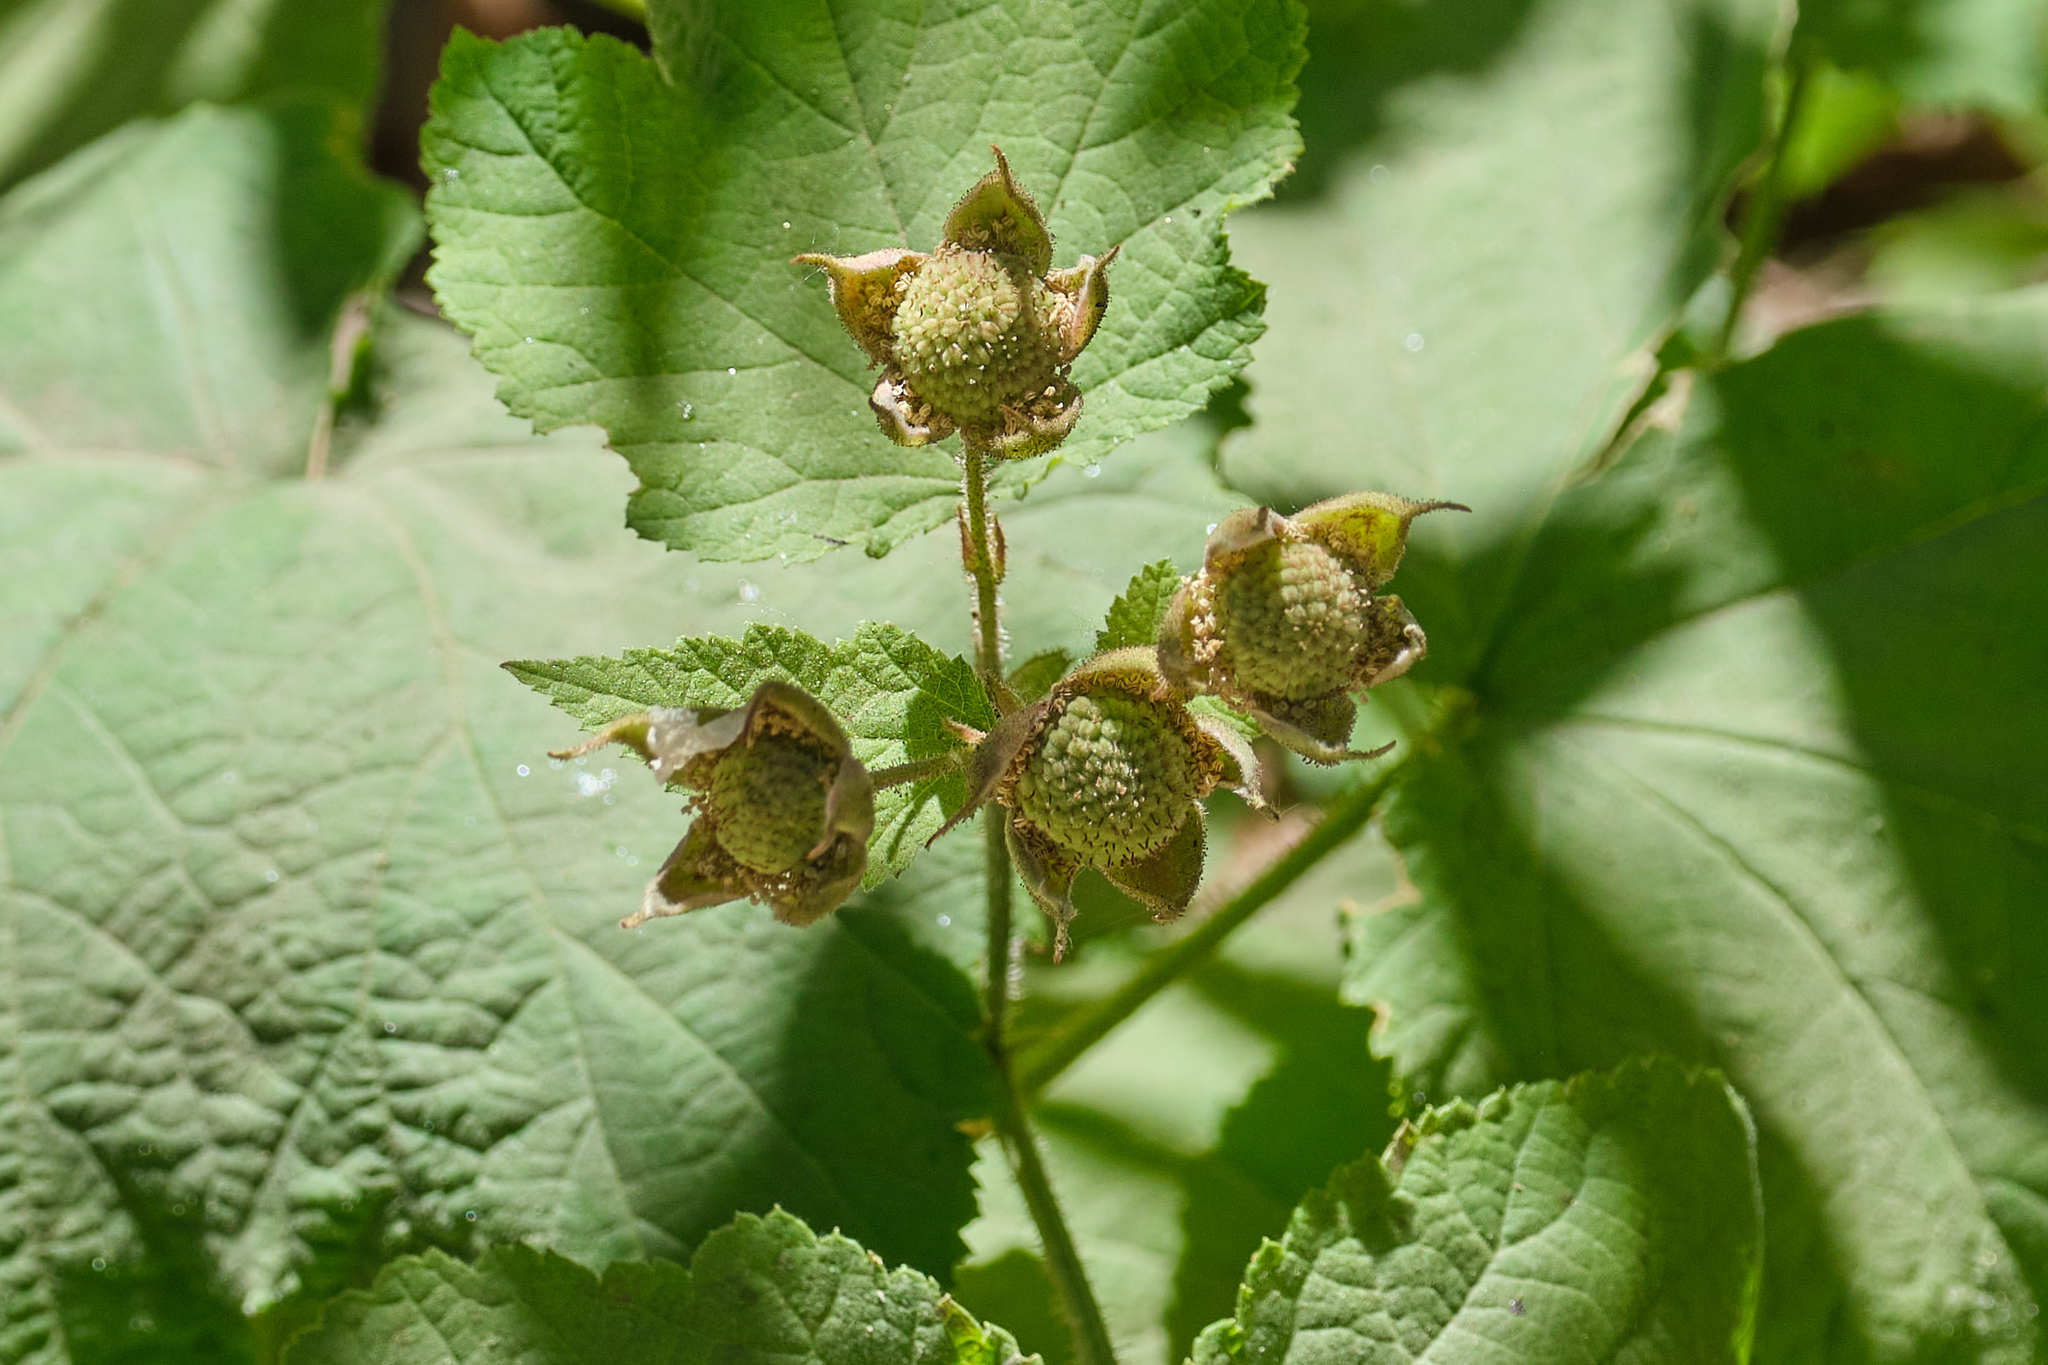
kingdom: Plantae
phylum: Tracheophyta
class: Magnoliopsida
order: Rosales
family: Rosaceae
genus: Rubus
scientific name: Rubus parviflorus
